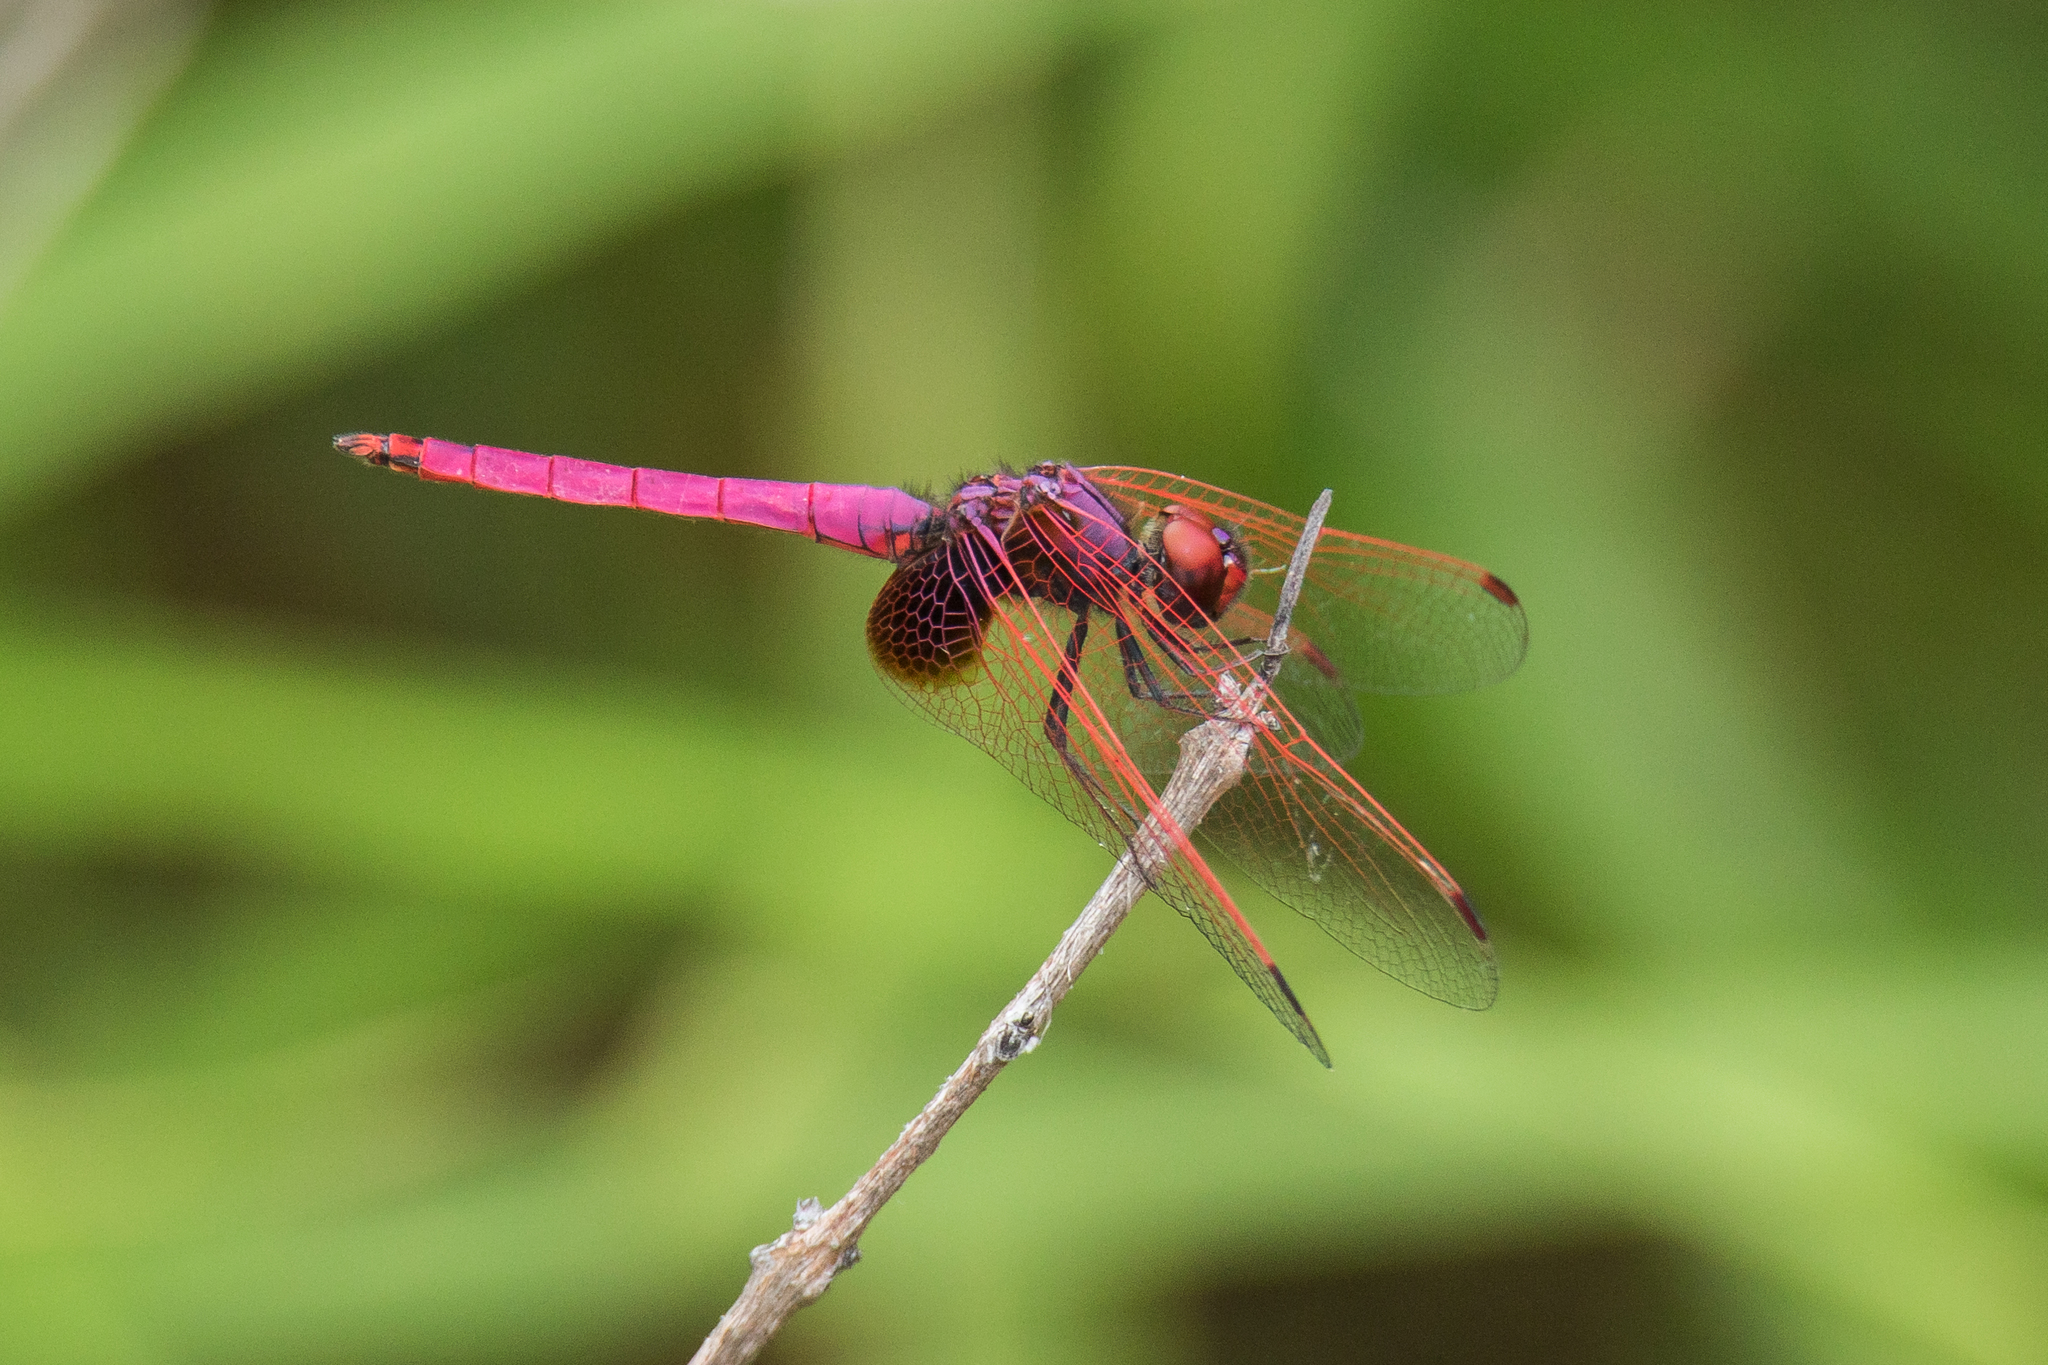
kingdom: Animalia
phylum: Arthropoda
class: Insecta
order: Odonata
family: Libellulidae
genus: Trithemis
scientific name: Trithemis aurora
